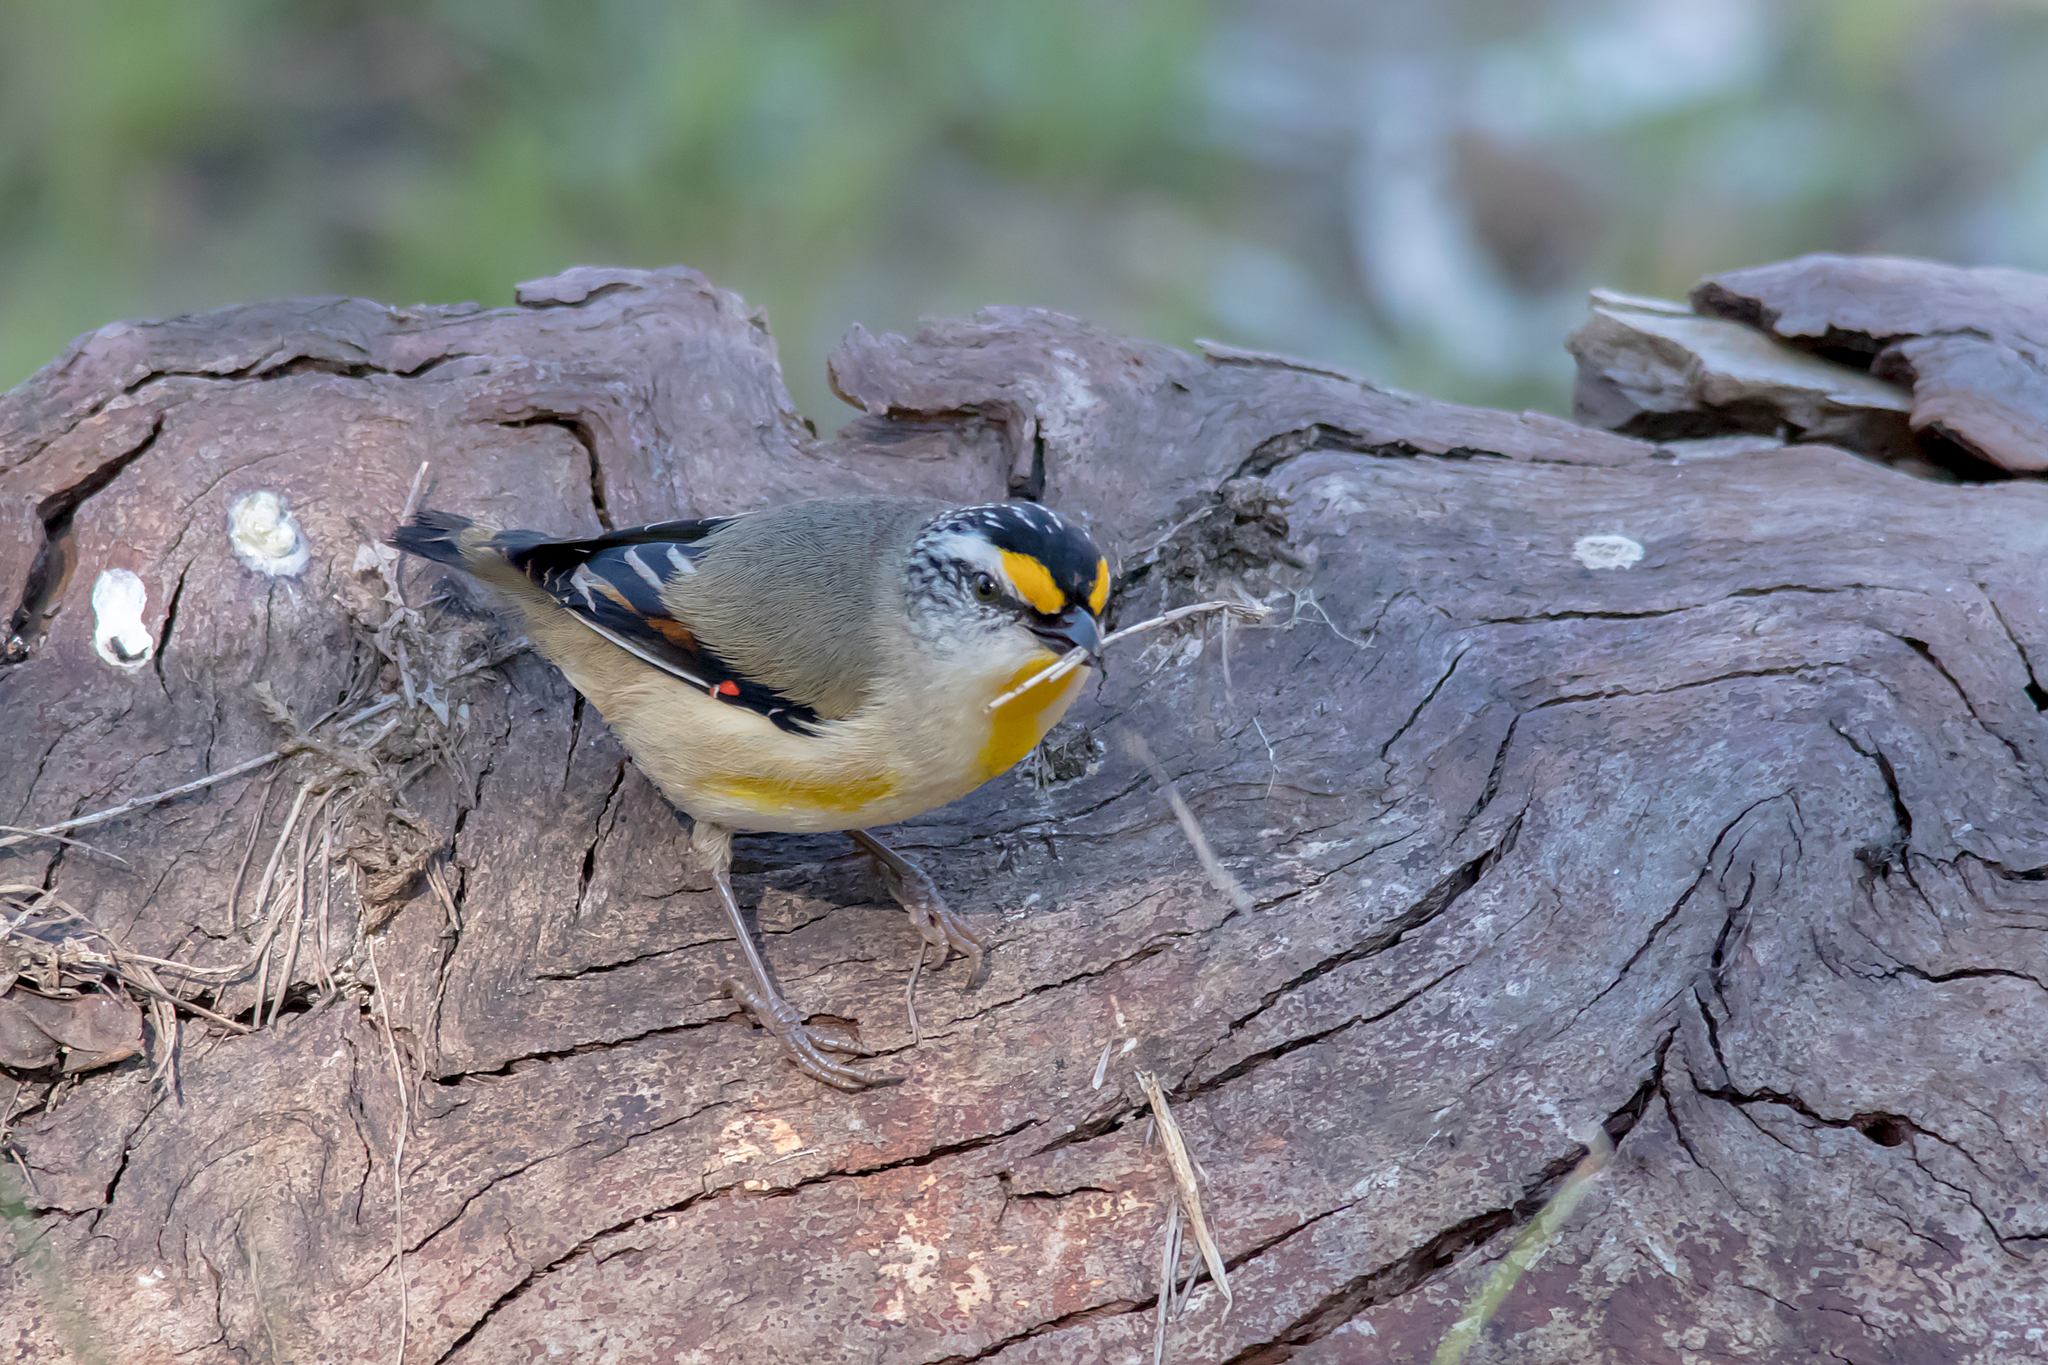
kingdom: Animalia
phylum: Chordata
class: Aves
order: Passeriformes
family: Pardalotidae
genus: Pardalotus
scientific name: Pardalotus striatus
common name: Striated pardalote
